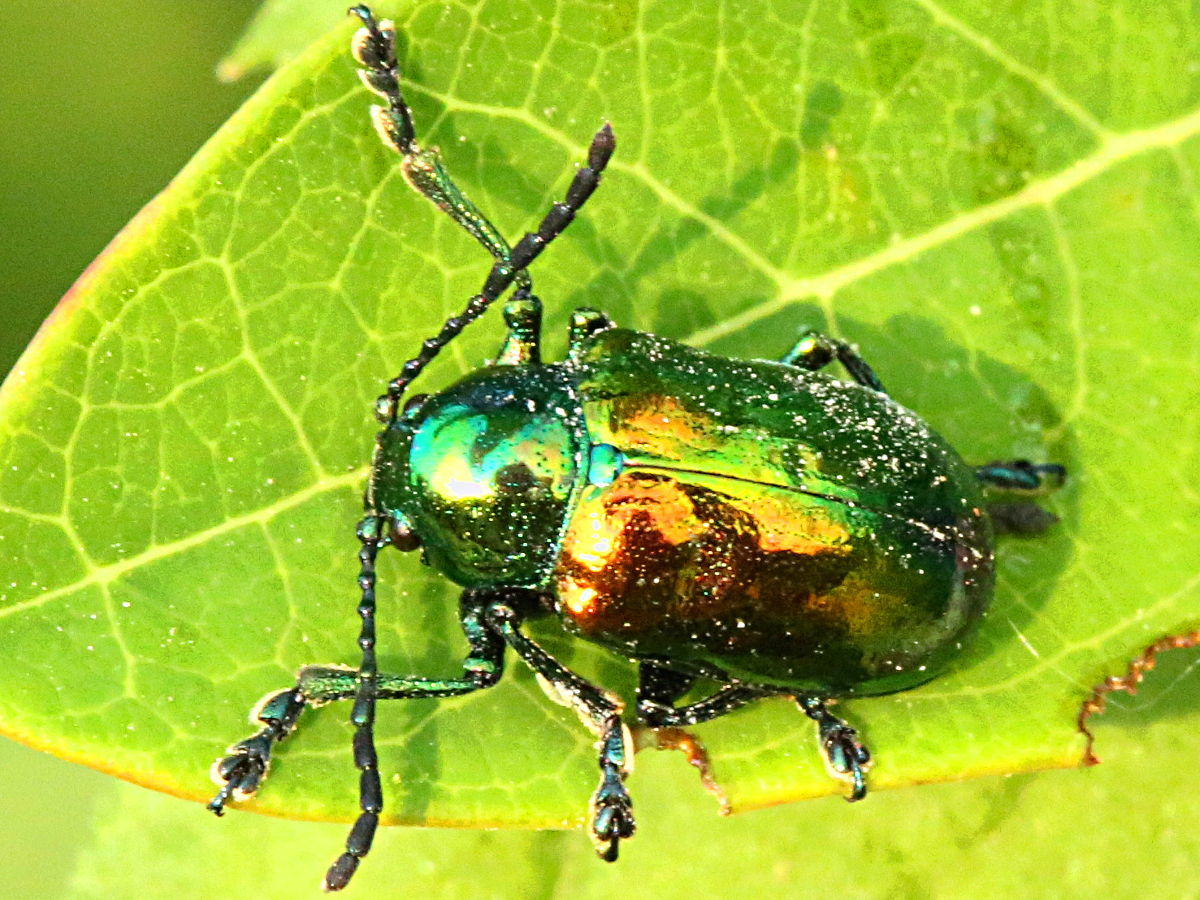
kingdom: Animalia
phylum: Arthropoda
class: Insecta
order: Coleoptera
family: Chrysomelidae
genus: Chrysochus
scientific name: Chrysochus auratus
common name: Dogbane leaf beetle
